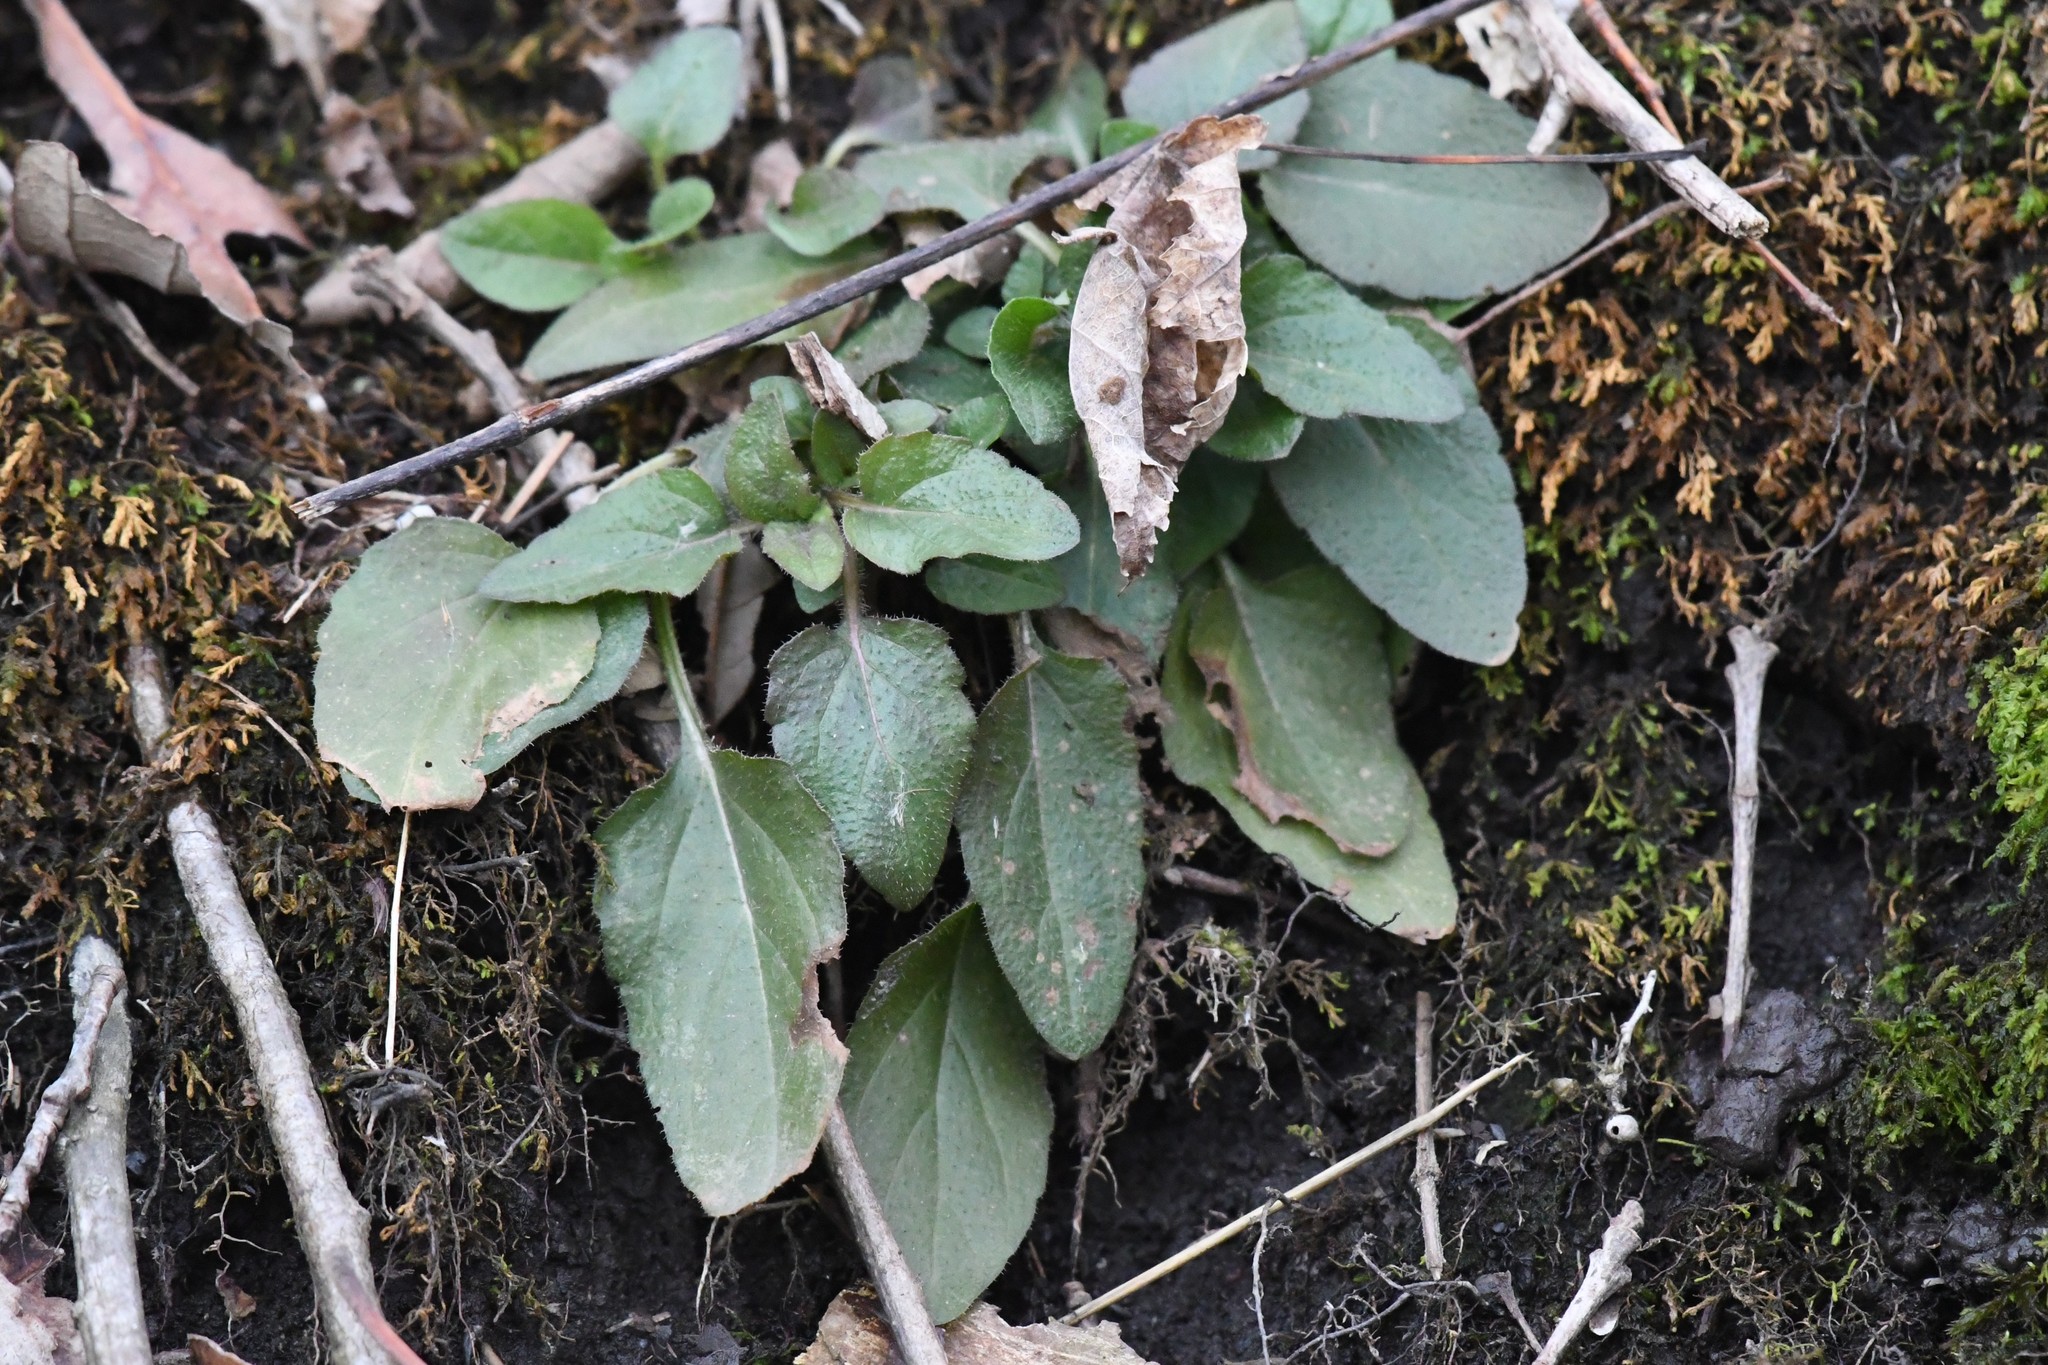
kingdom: Plantae
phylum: Tracheophyta
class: Magnoliopsida
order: Lamiales
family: Lamiaceae
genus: Prunella
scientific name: Prunella vulgaris
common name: Heal-all
